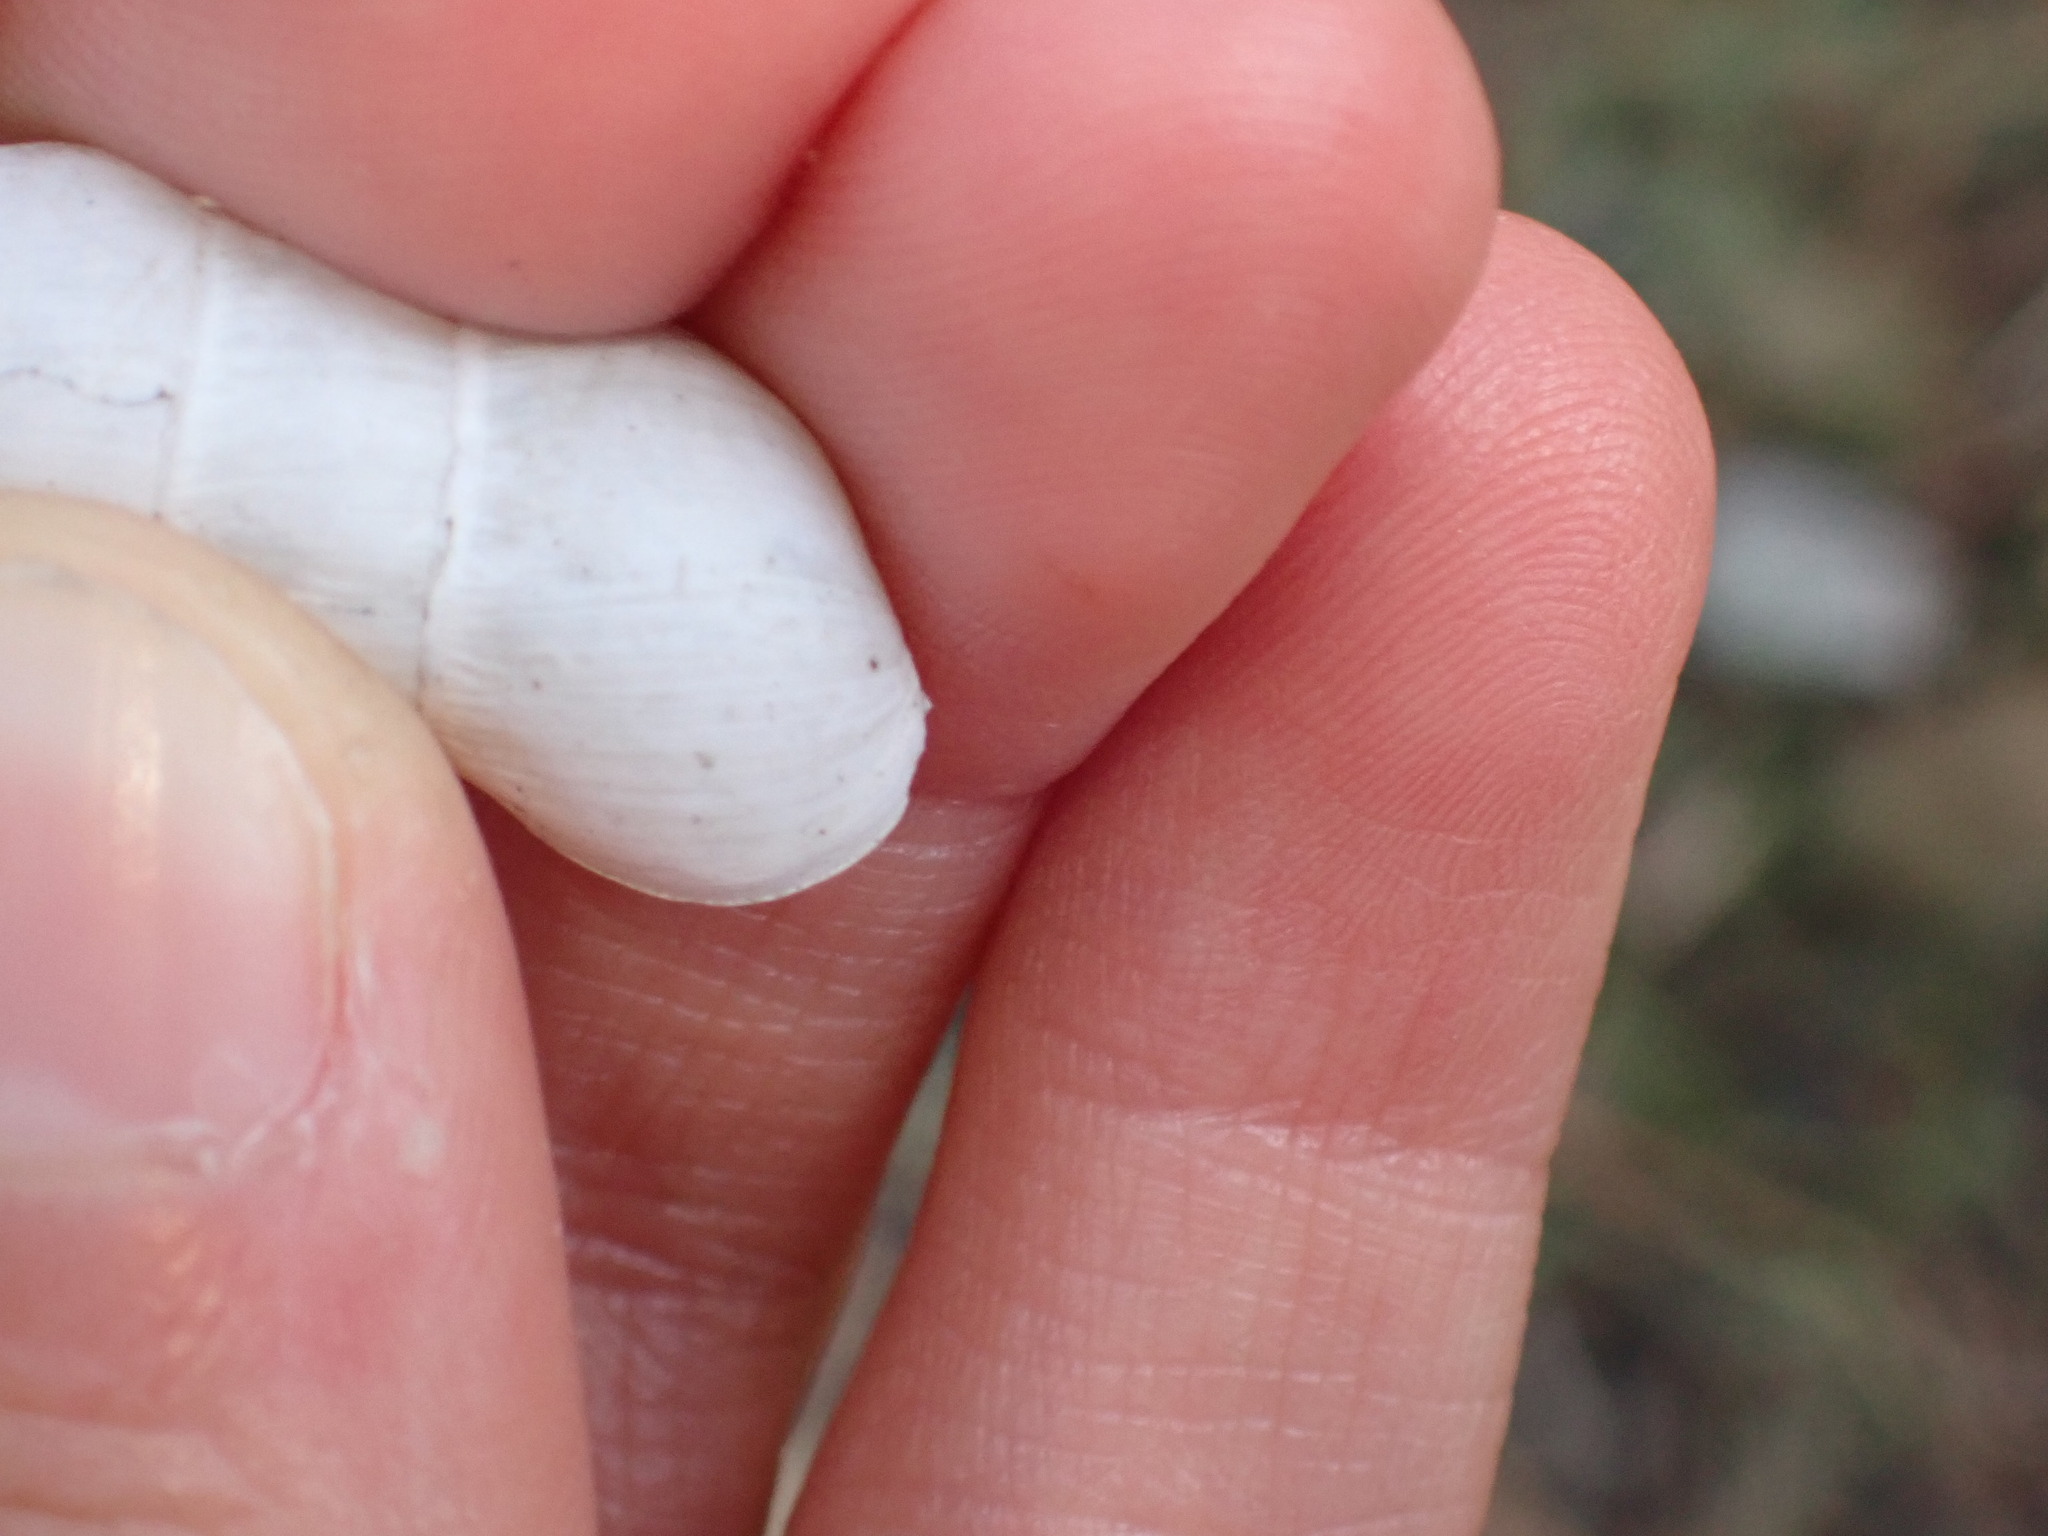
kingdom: Animalia
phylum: Mollusca
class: Gastropoda
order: Stylommatophora
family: Achatinidae
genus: Rumina
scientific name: Rumina decollata
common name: Decollate snail
